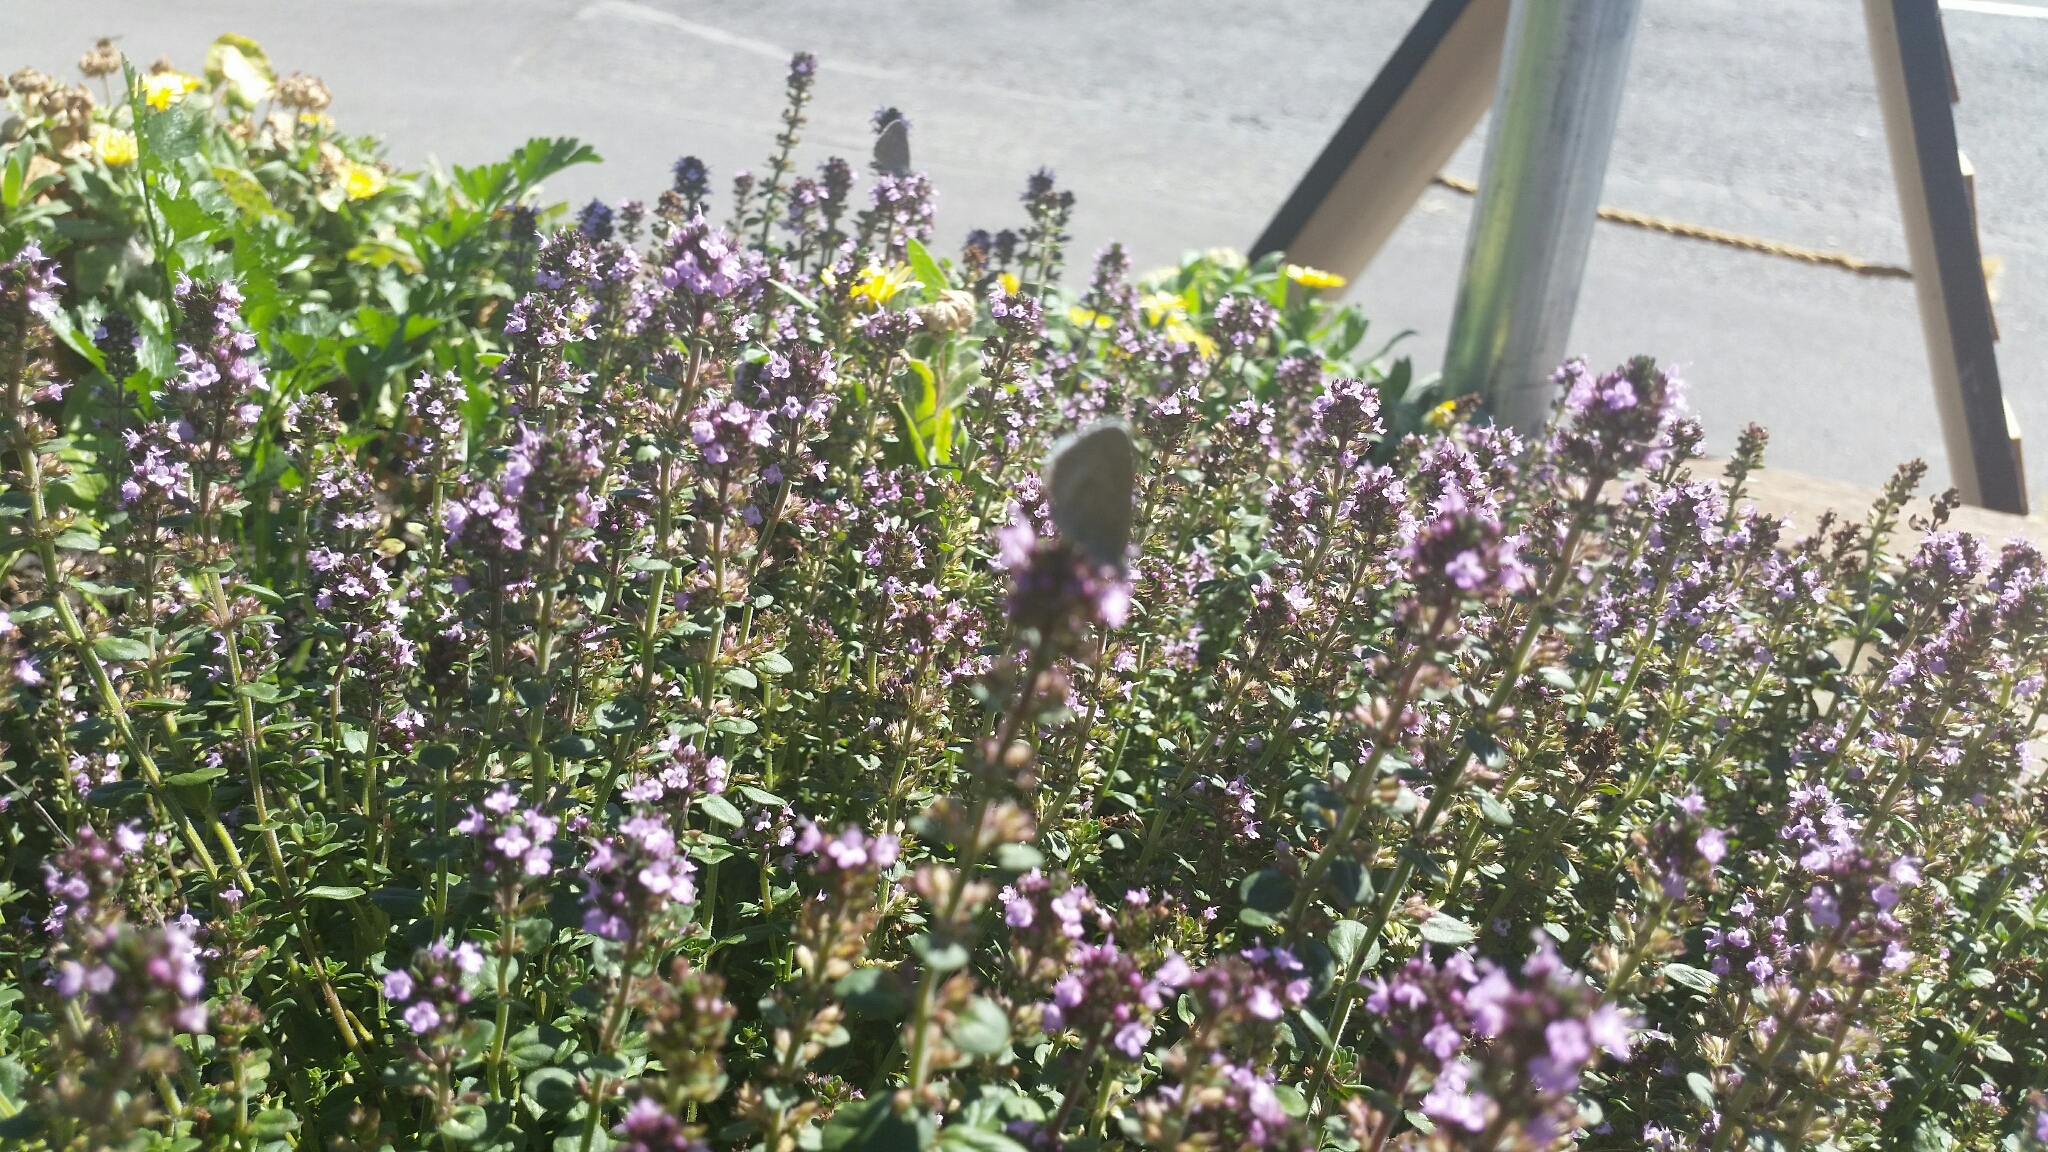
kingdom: Animalia
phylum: Arthropoda
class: Insecta
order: Lepidoptera
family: Lycaenidae
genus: Zizina
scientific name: Zizina labradus
